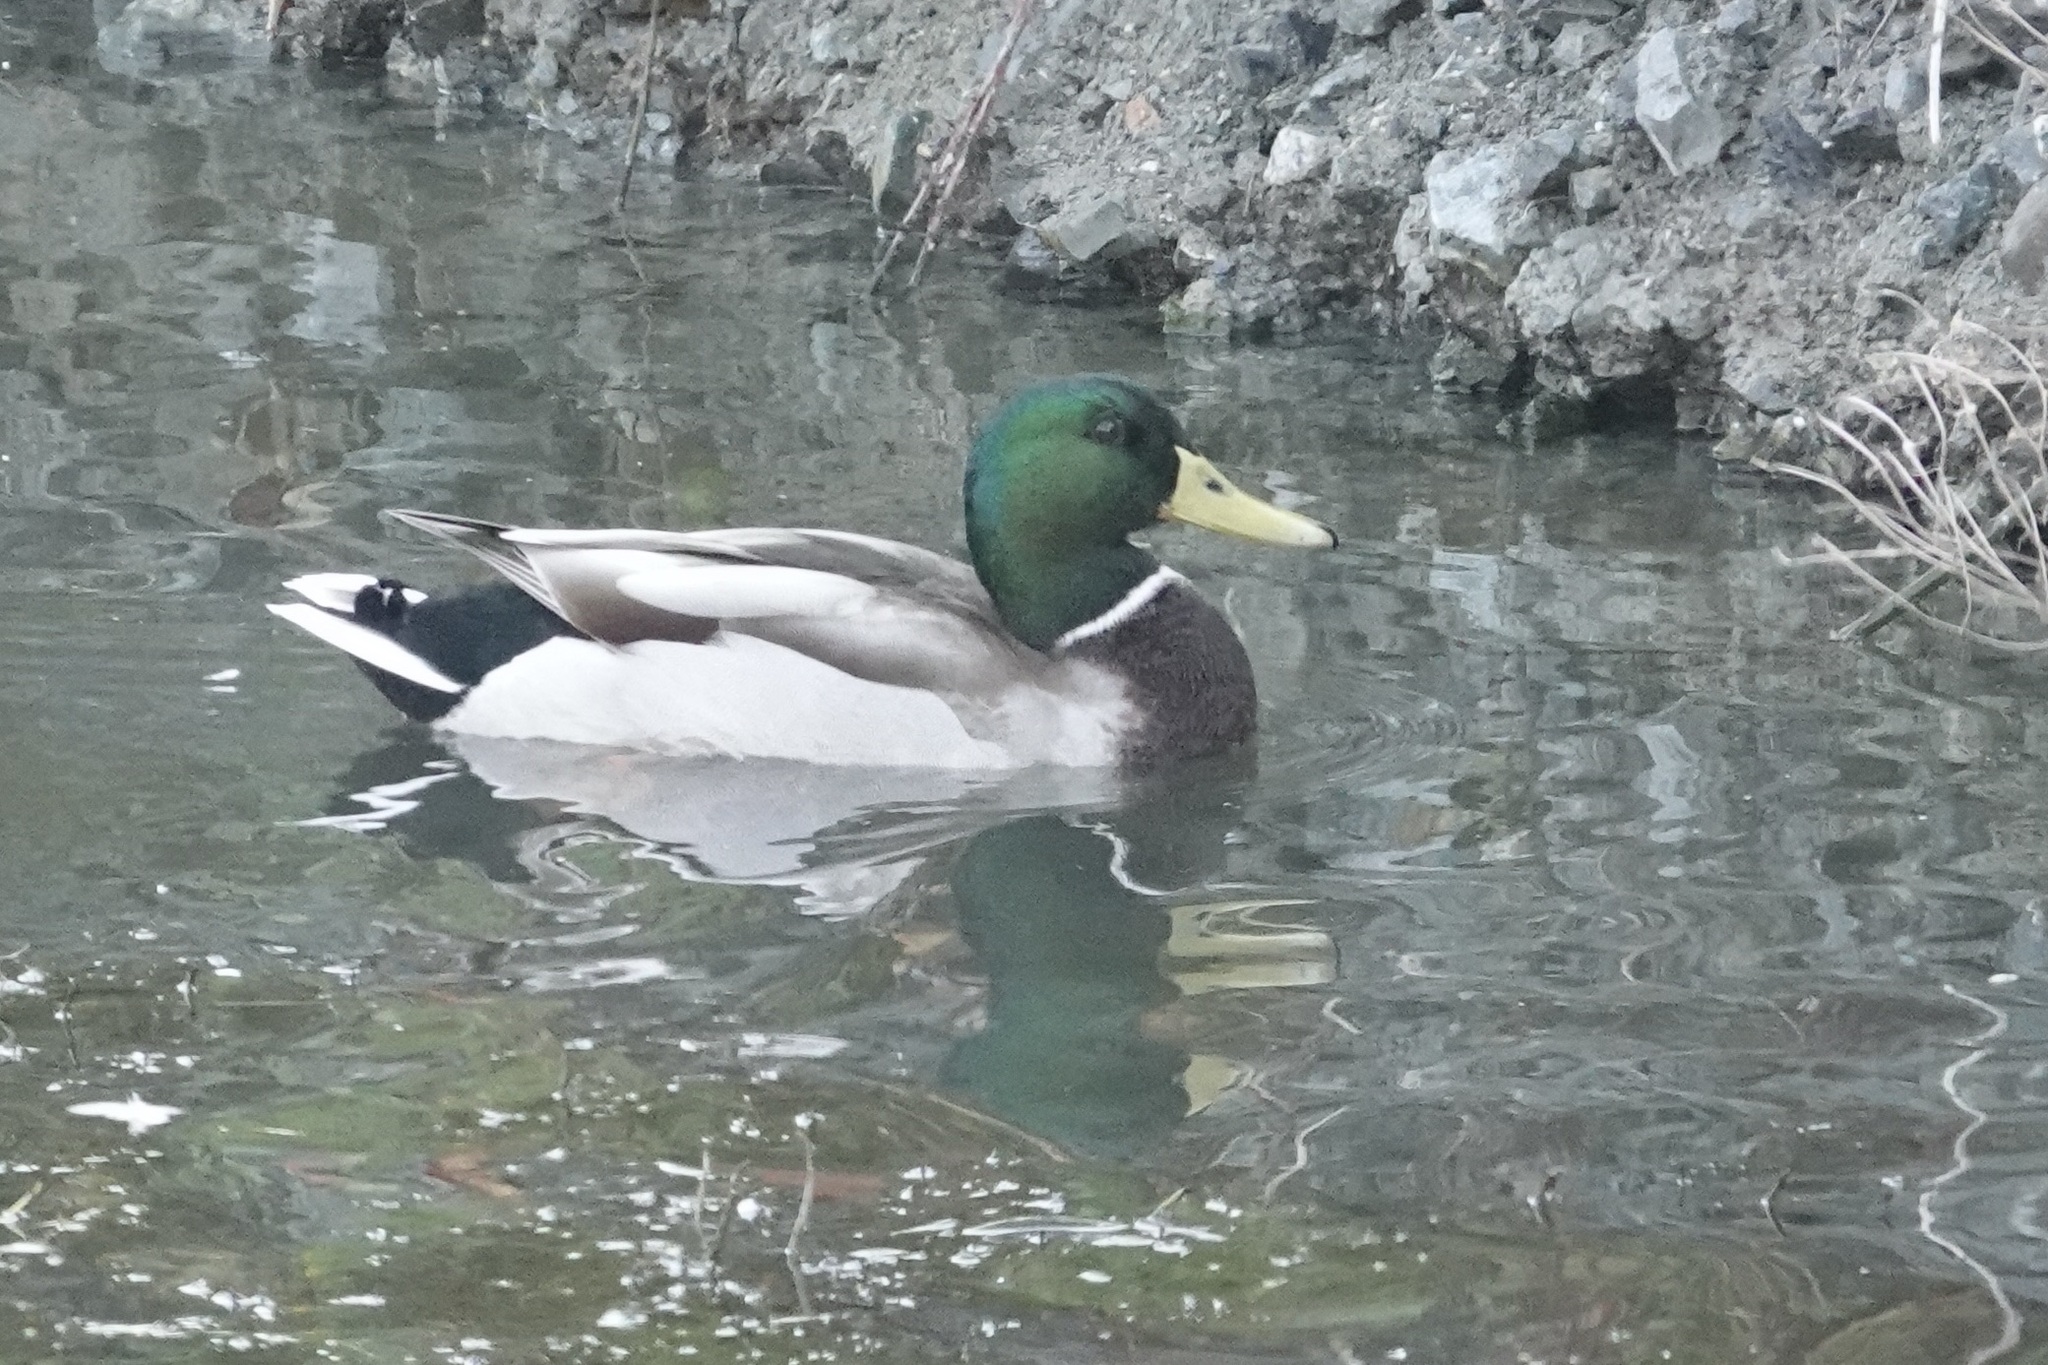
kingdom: Animalia
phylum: Chordata
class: Aves
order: Anseriformes
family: Anatidae
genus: Anas
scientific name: Anas platyrhynchos
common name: Mallard
